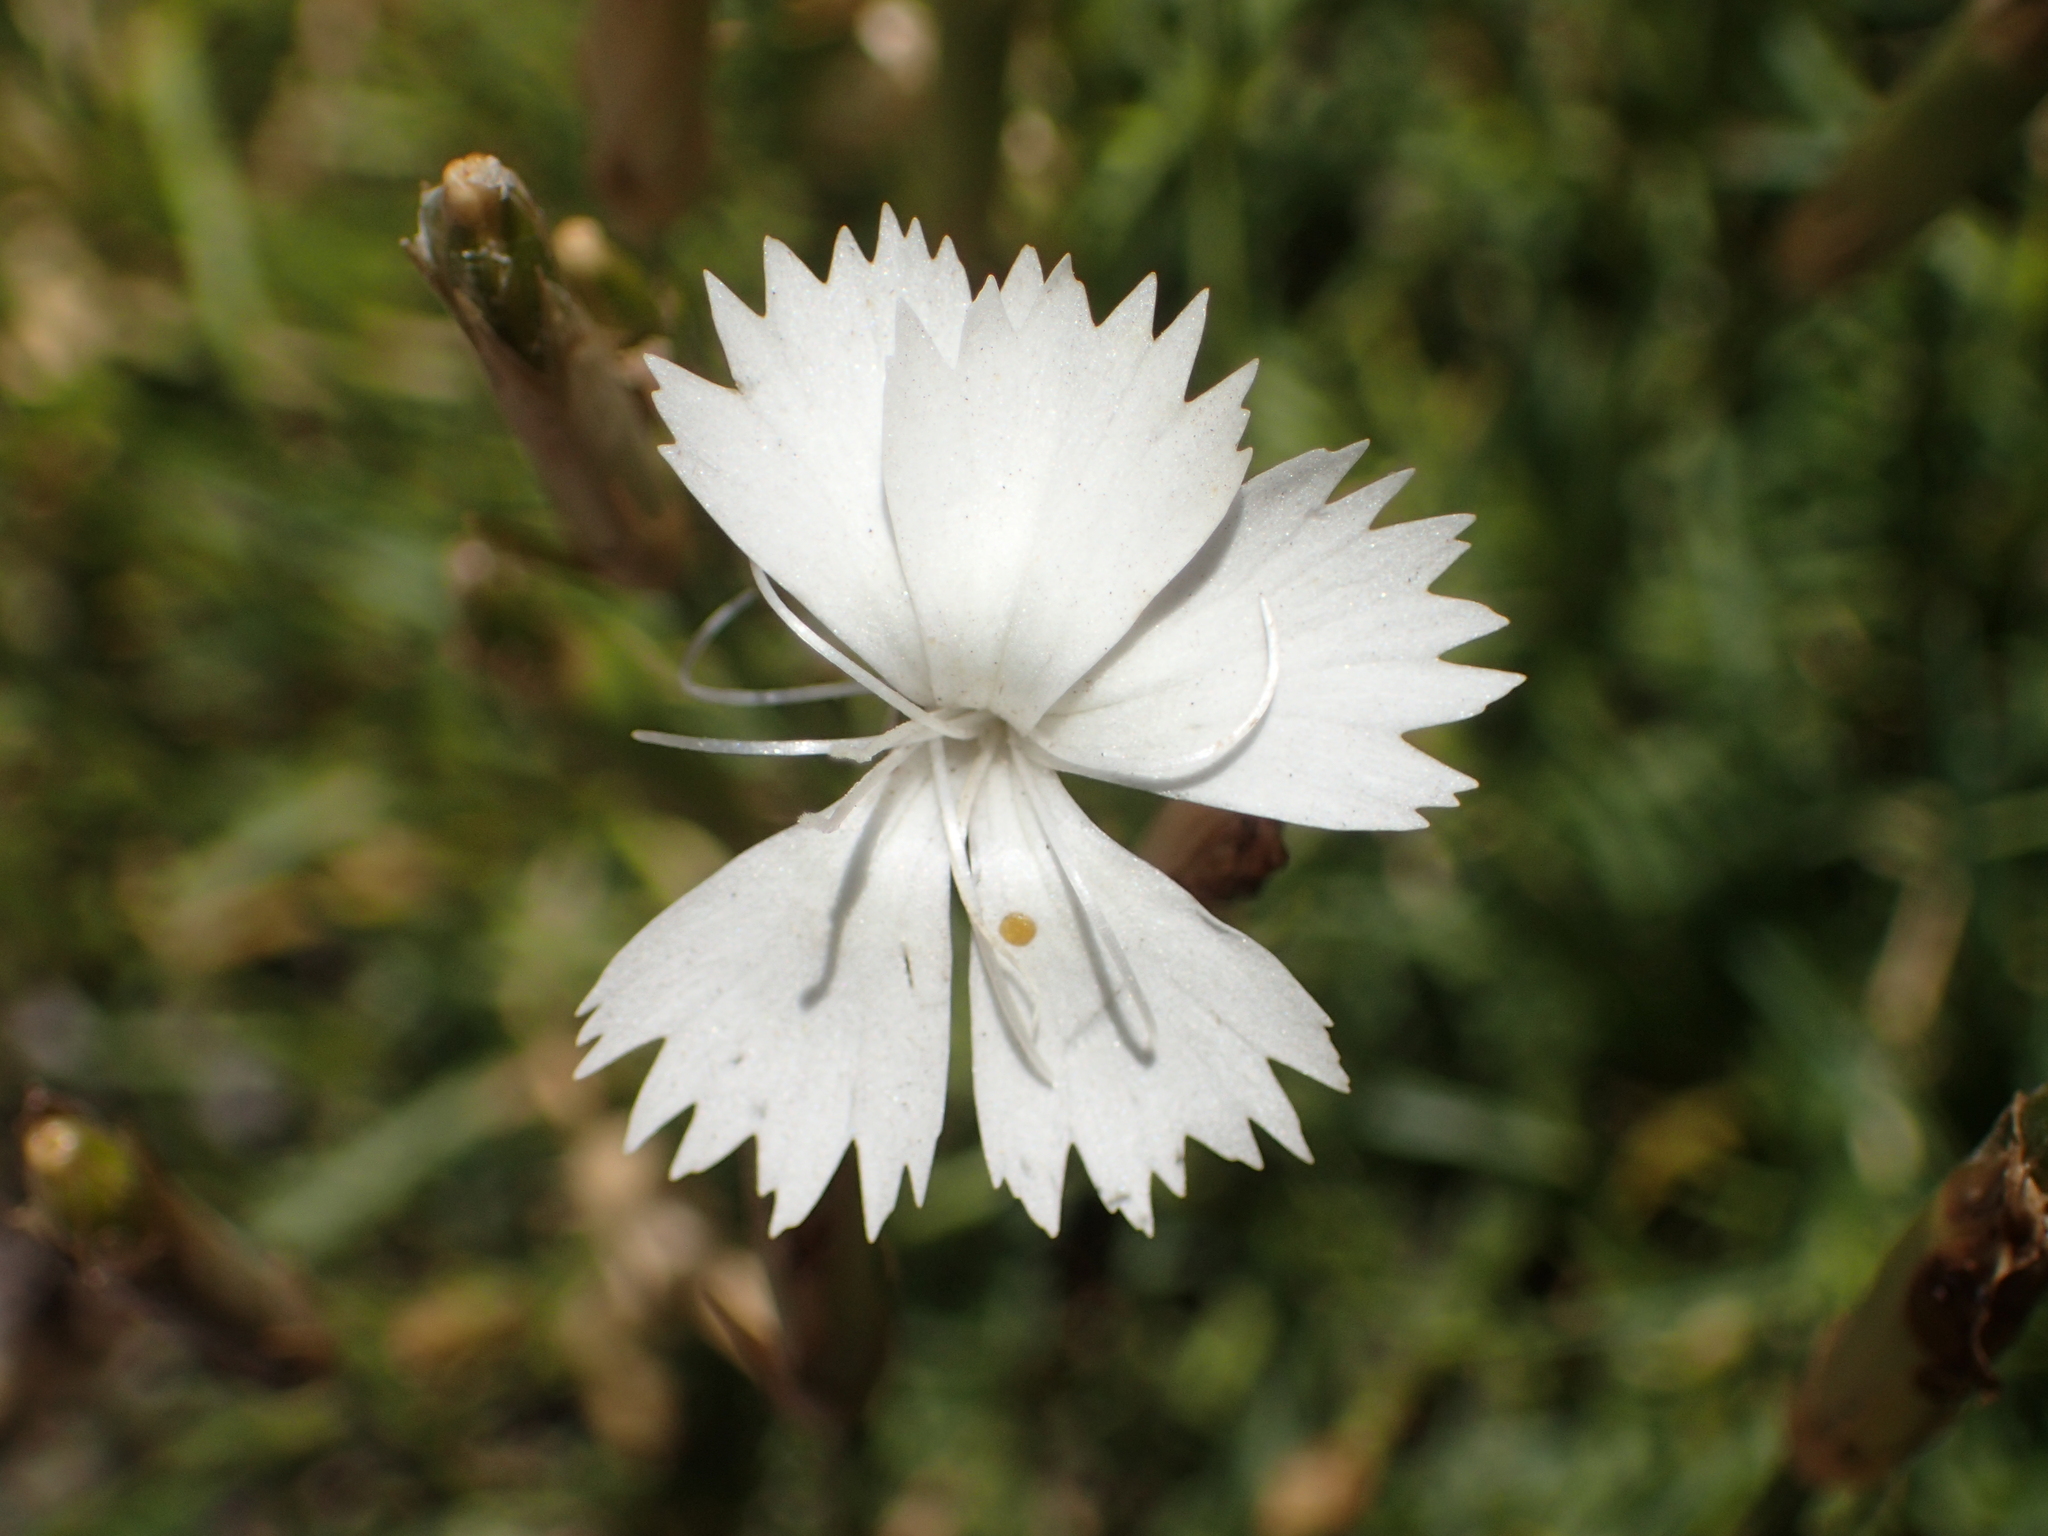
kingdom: Plantae
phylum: Tracheophyta
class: Magnoliopsida
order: Caryophyllales
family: Caryophyllaceae
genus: Dianthus
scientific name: Dianthus petraeus
